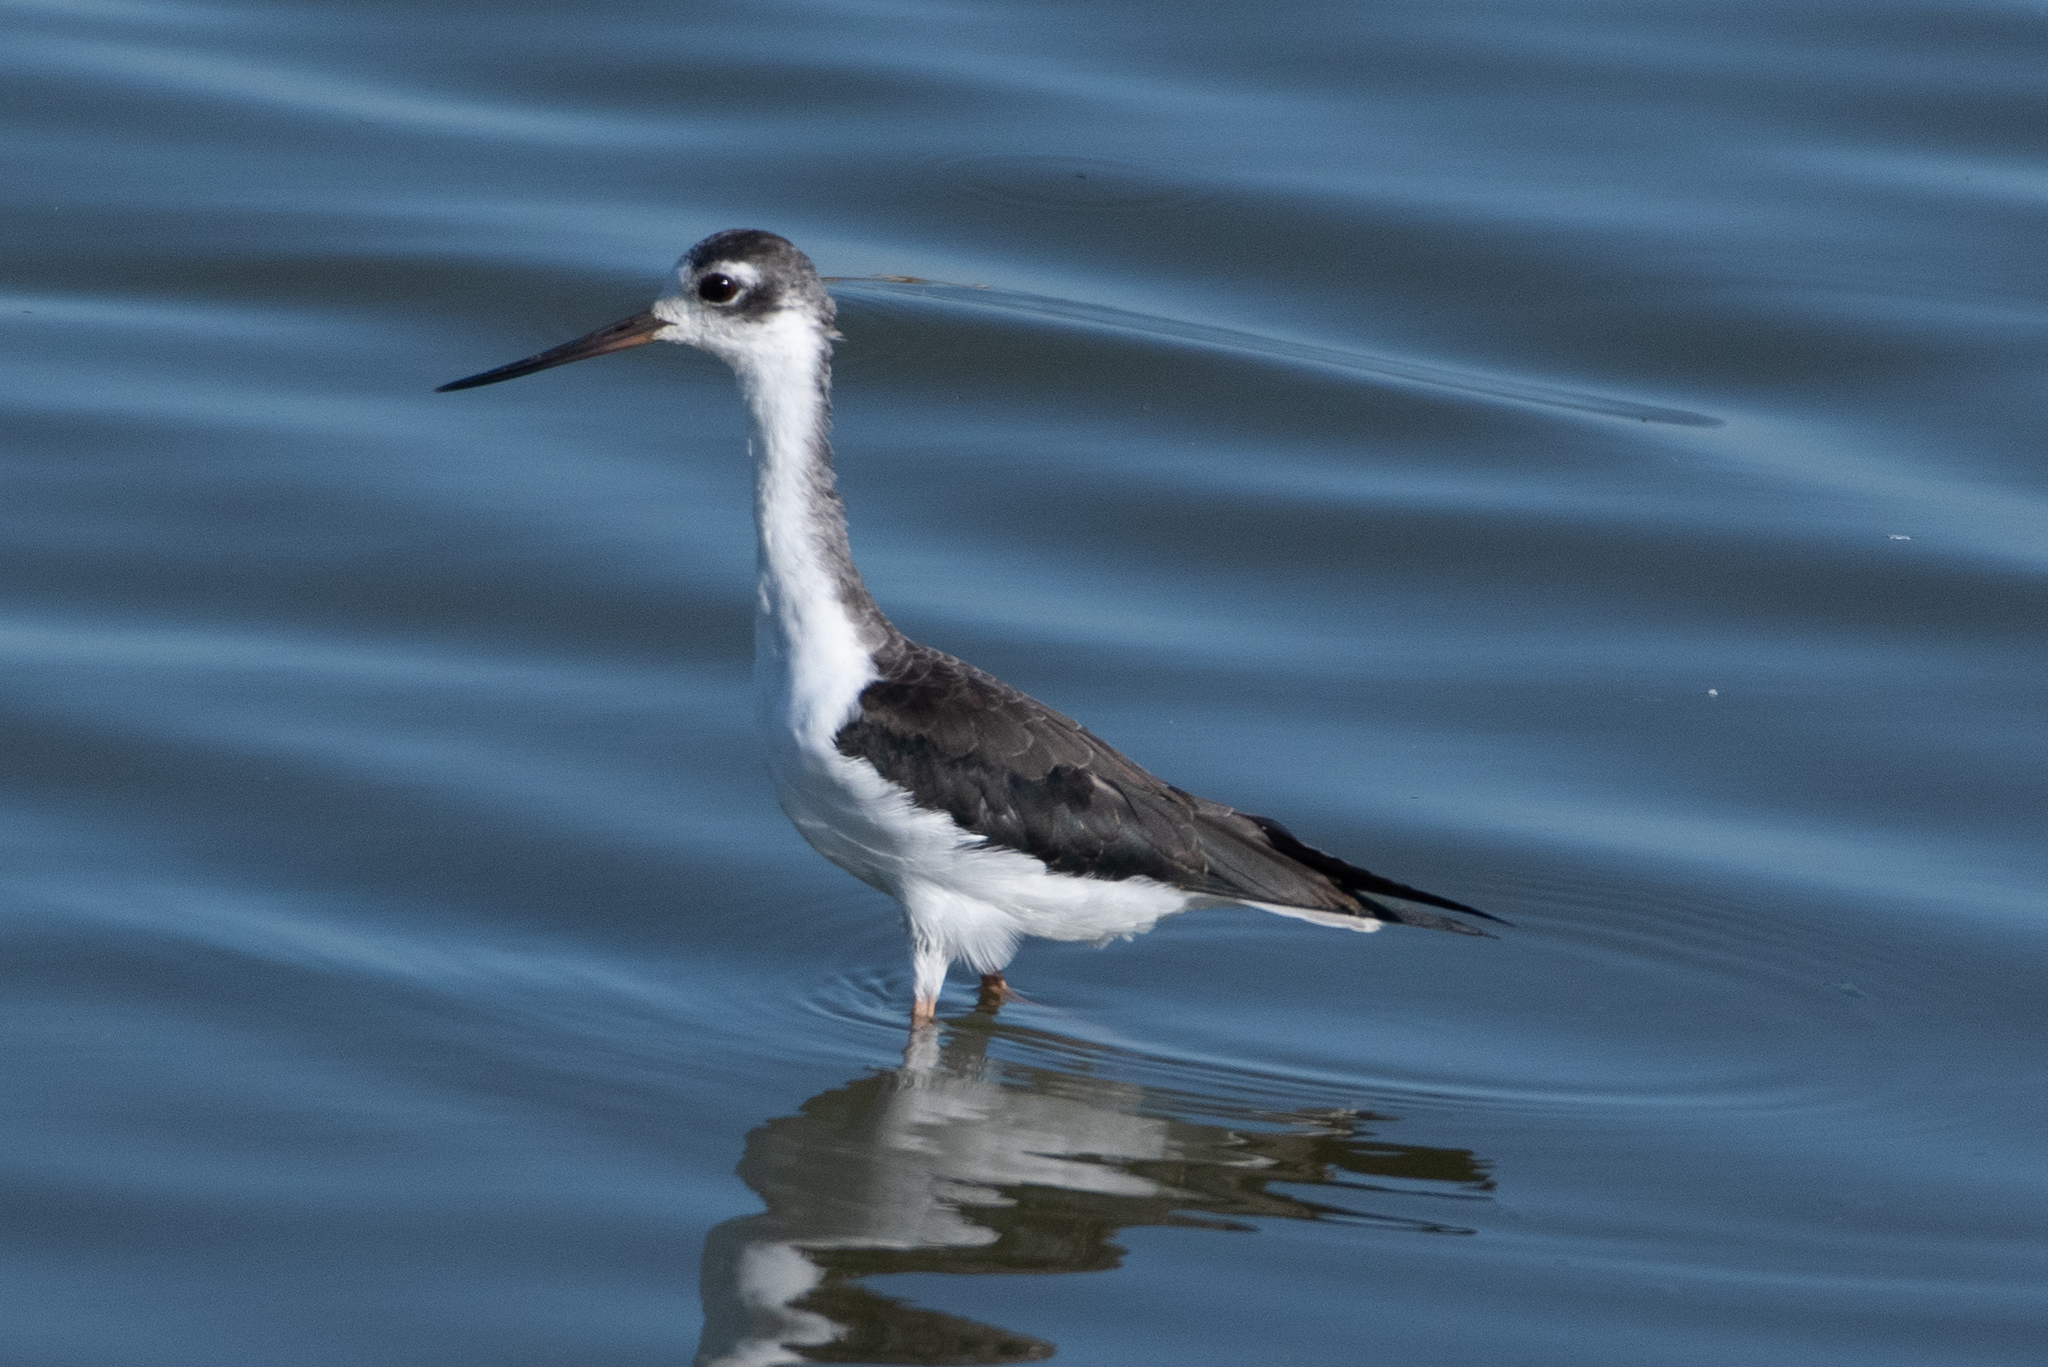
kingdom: Animalia
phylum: Chordata
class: Aves
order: Charadriiformes
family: Recurvirostridae
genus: Himantopus
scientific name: Himantopus mexicanus
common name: Black-necked stilt
